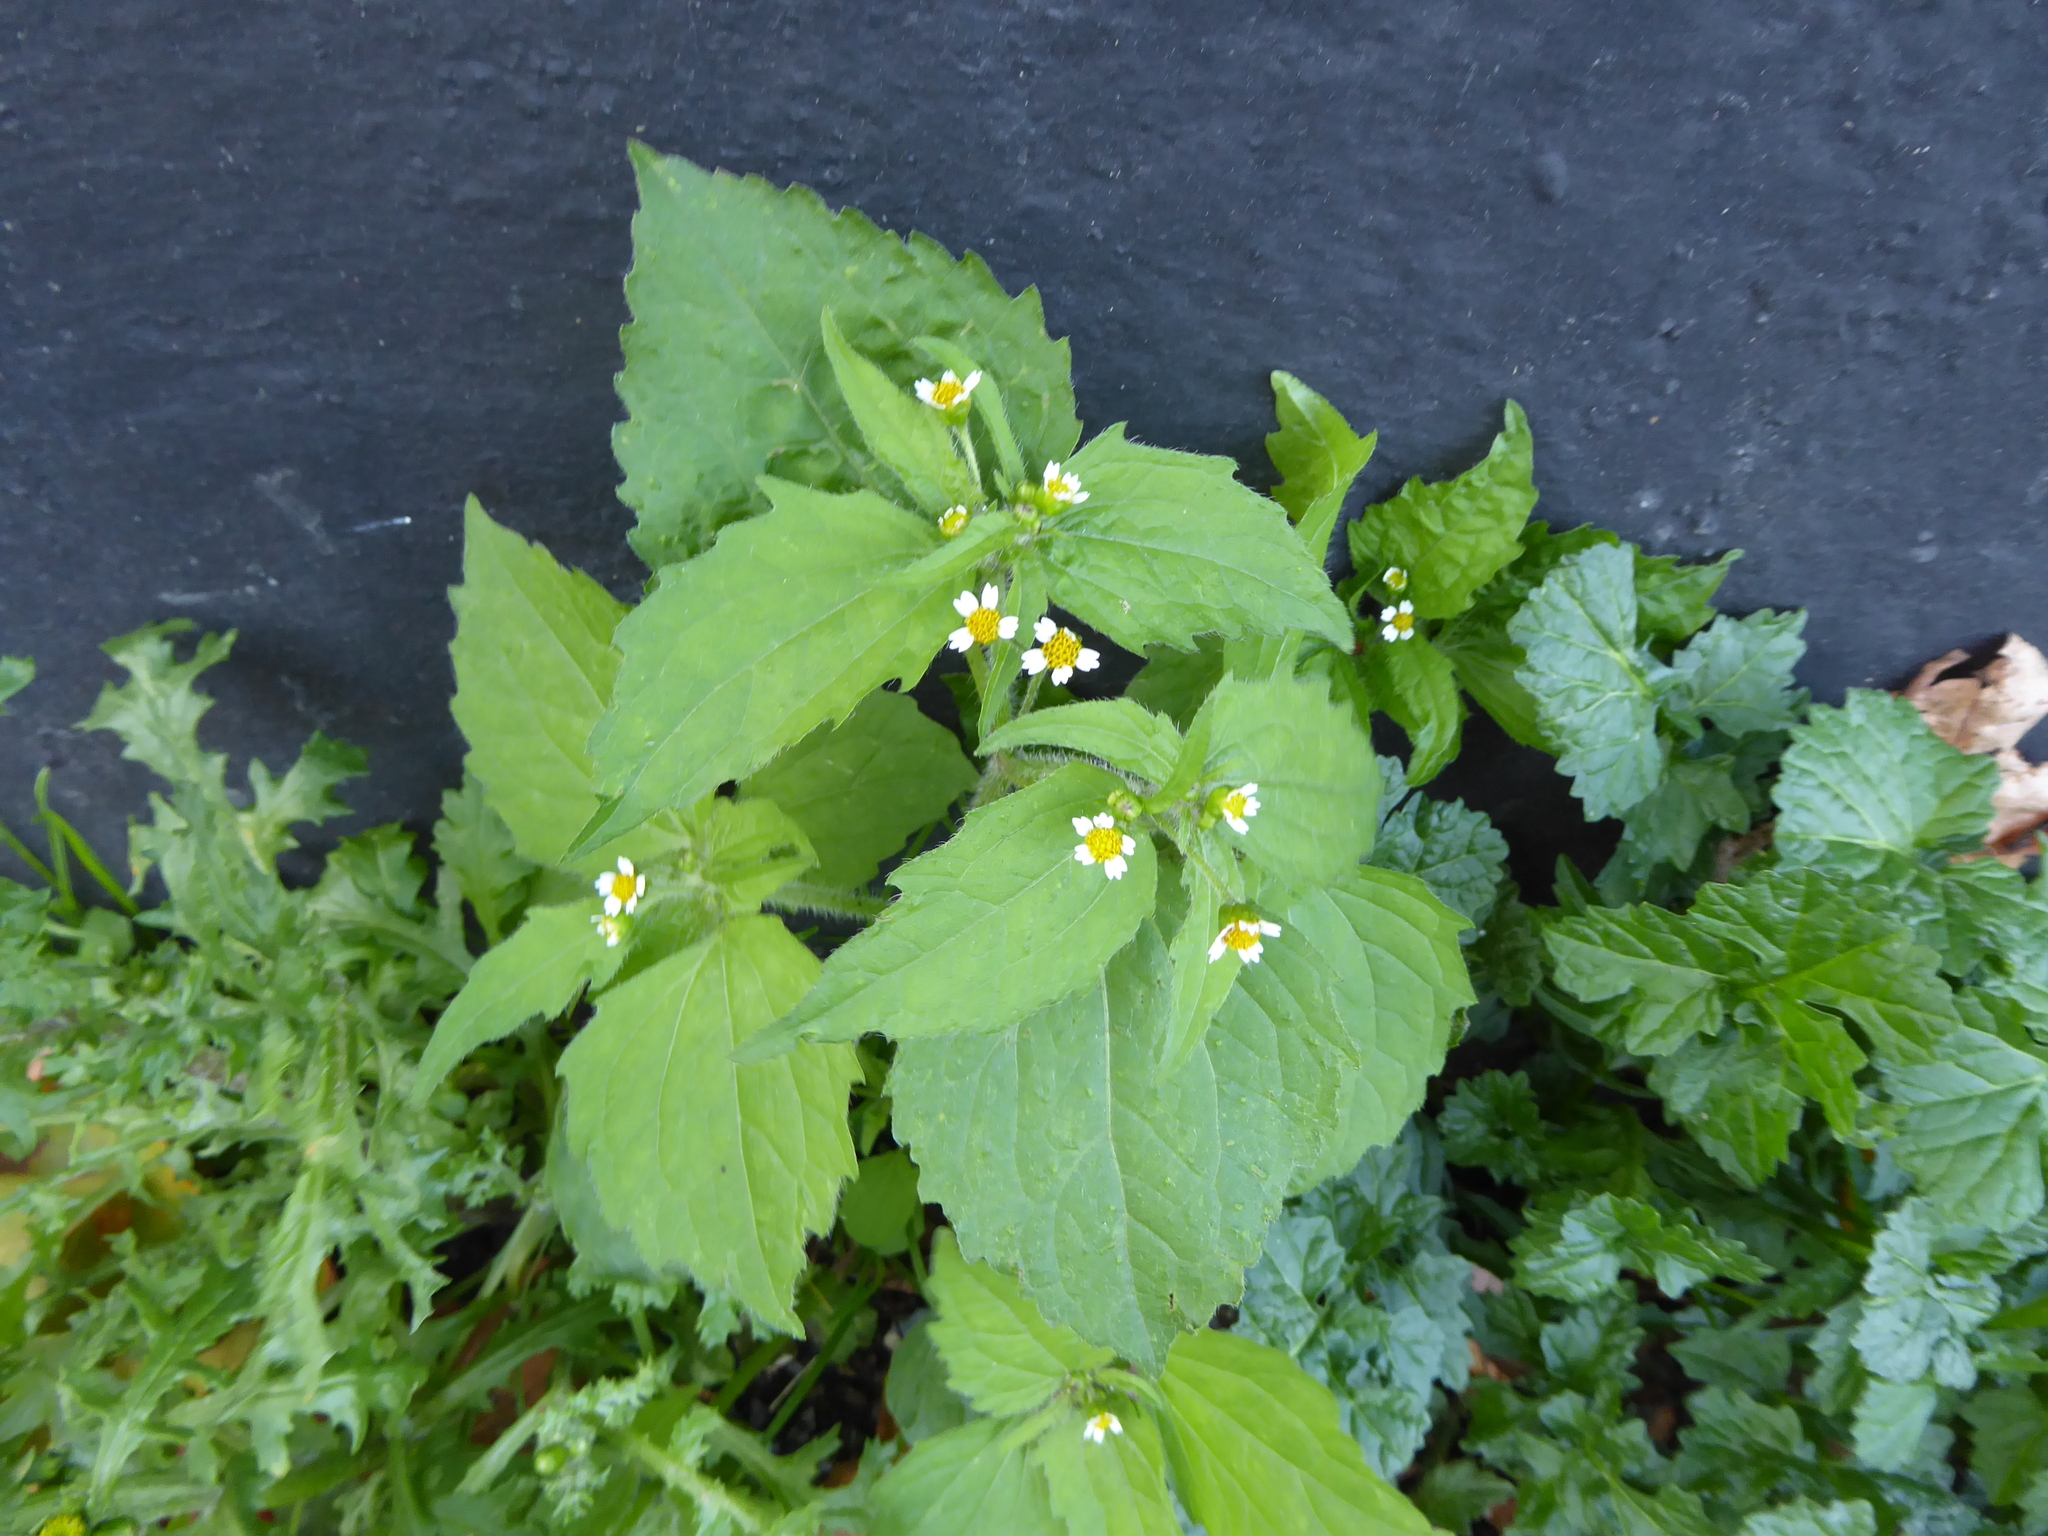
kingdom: Plantae
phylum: Tracheophyta
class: Magnoliopsida
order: Asterales
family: Asteraceae
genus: Galinsoga
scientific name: Galinsoga quadriradiata
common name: Shaggy soldier
